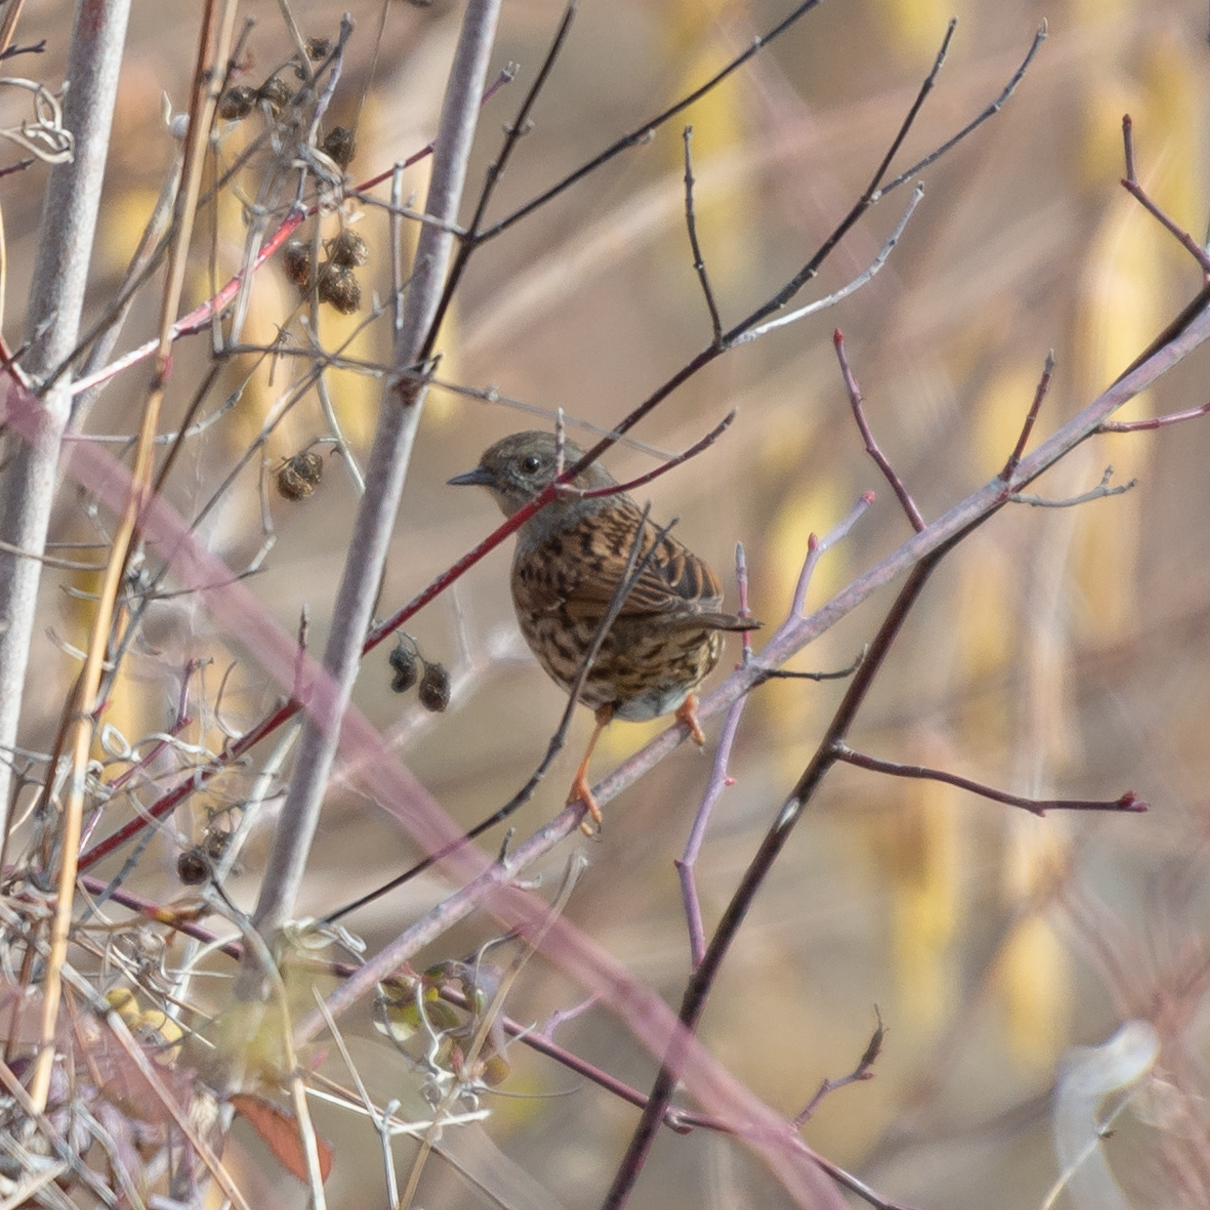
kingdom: Animalia
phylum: Chordata
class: Aves
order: Passeriformes
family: Prunellidae
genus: Prunella
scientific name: Prunella modularis
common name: Dunnock
